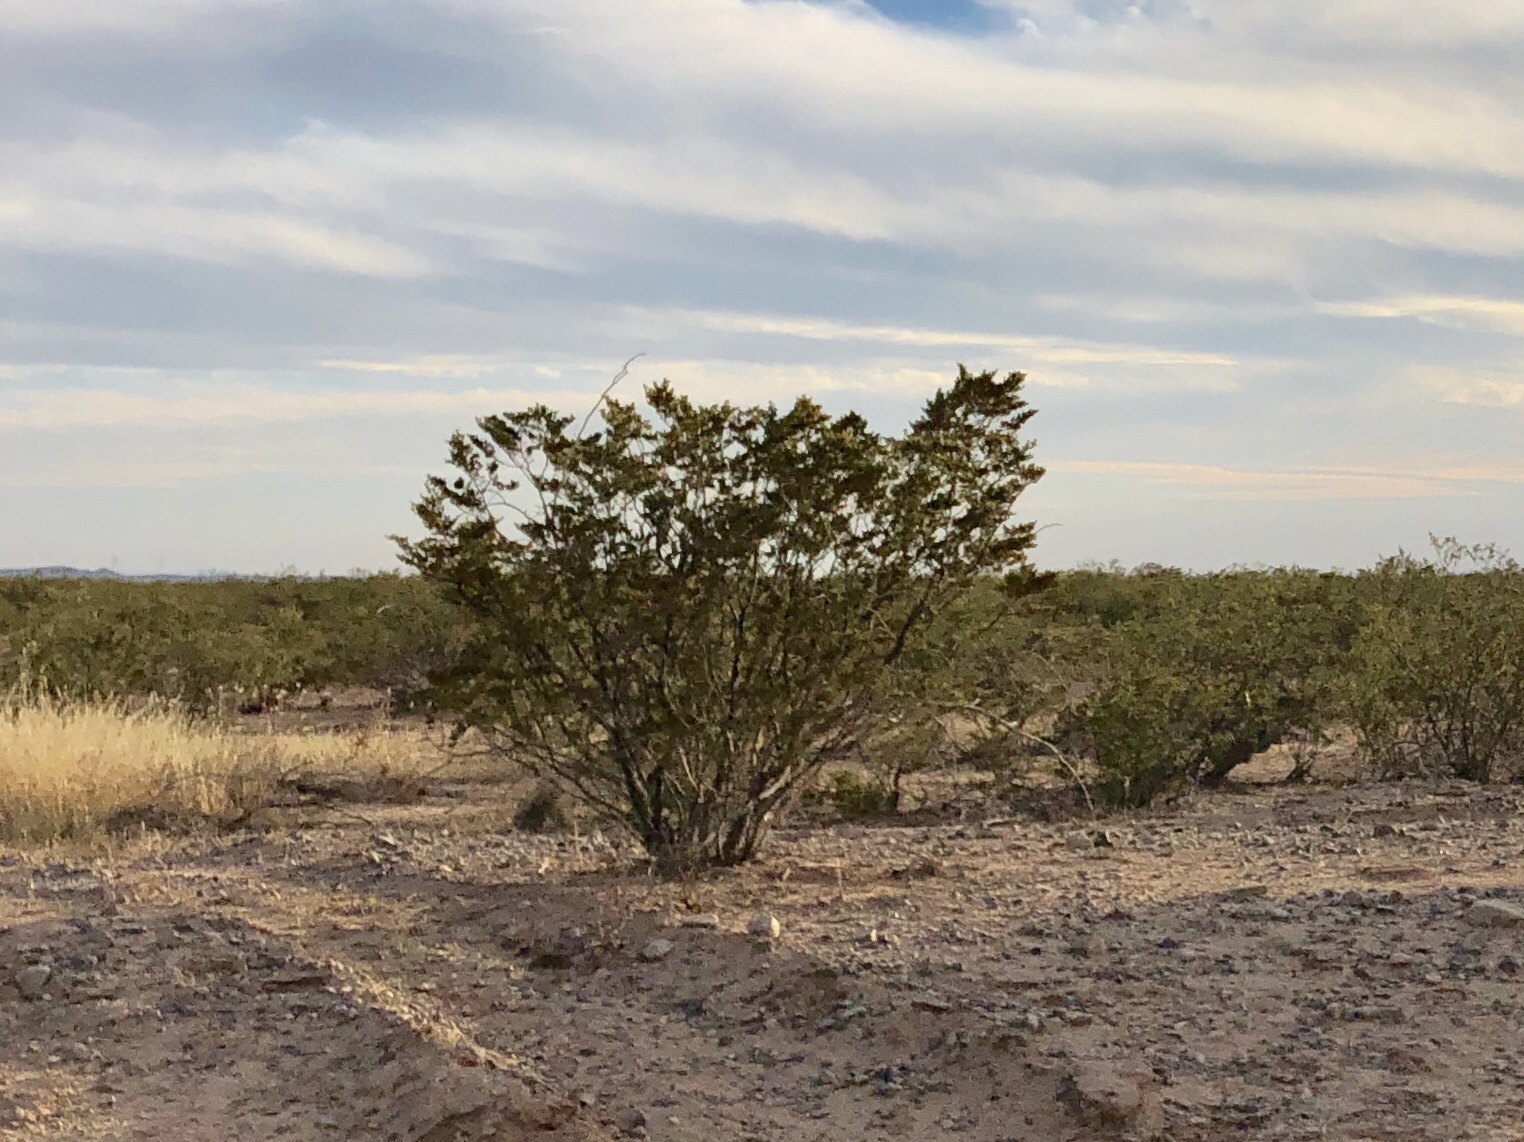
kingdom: Plantae
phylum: Tracheophyta
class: Magnoliopsida
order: Zygophyllales
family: Zygophyllaceae
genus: Larrea
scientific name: Larrea tridentata
